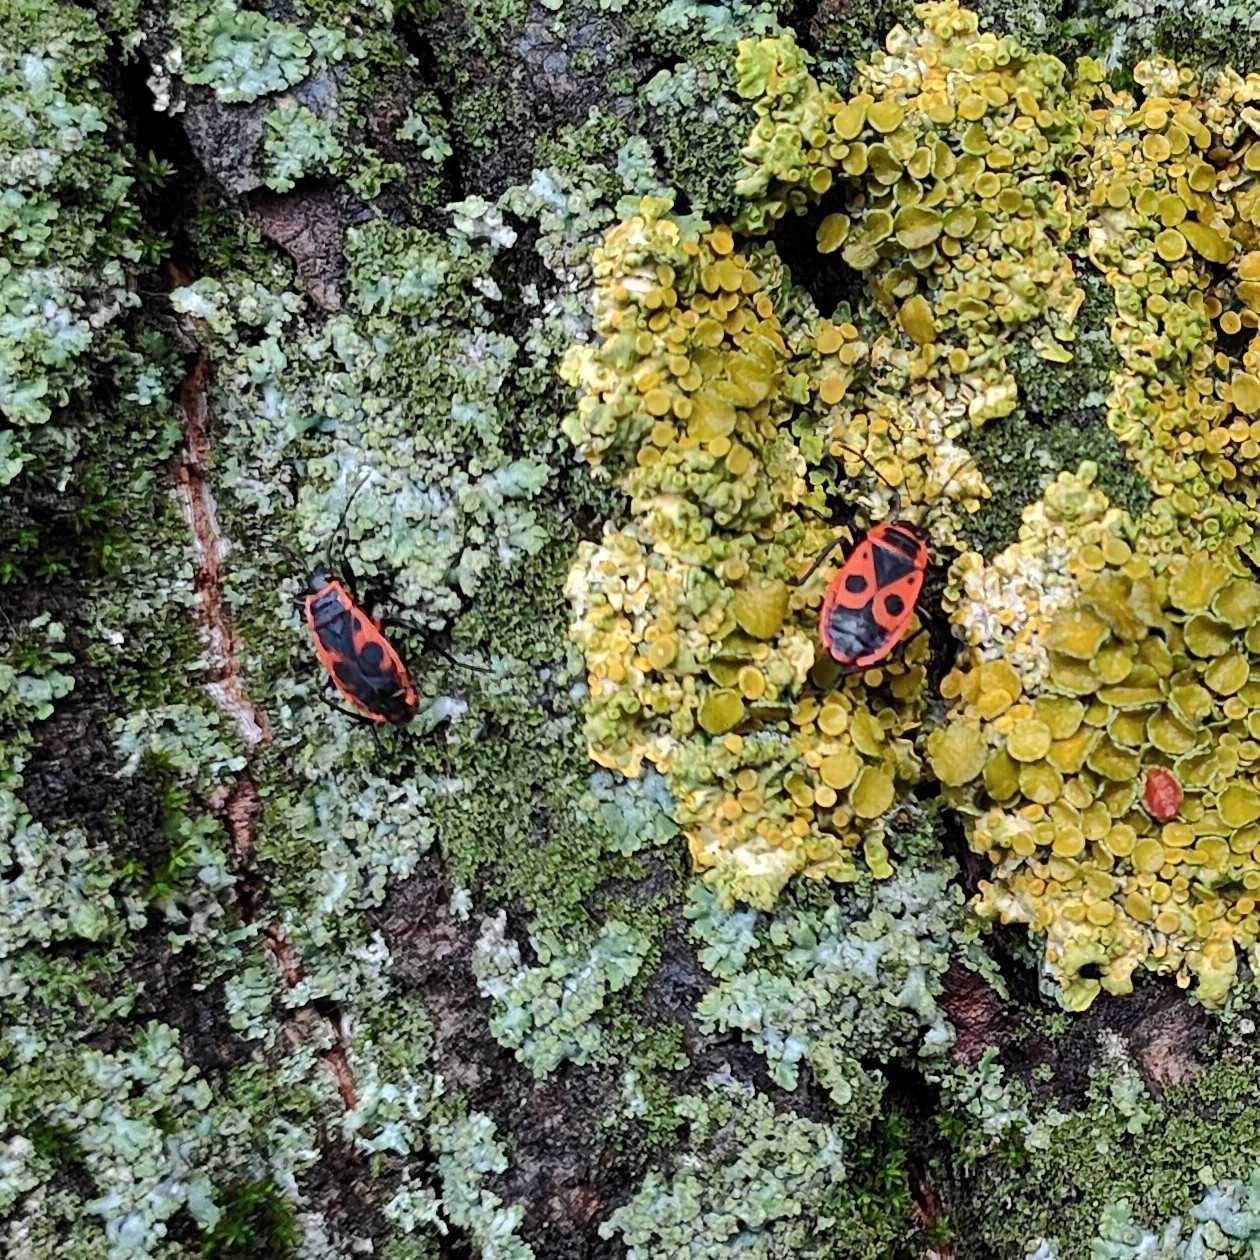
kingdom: Animalia
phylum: Arthropoda
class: Insecta
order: Hemiptera
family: Pyrrhocoridae
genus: Pyrrhocoris
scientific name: Pyrrhocoris apterus
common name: Firebug
